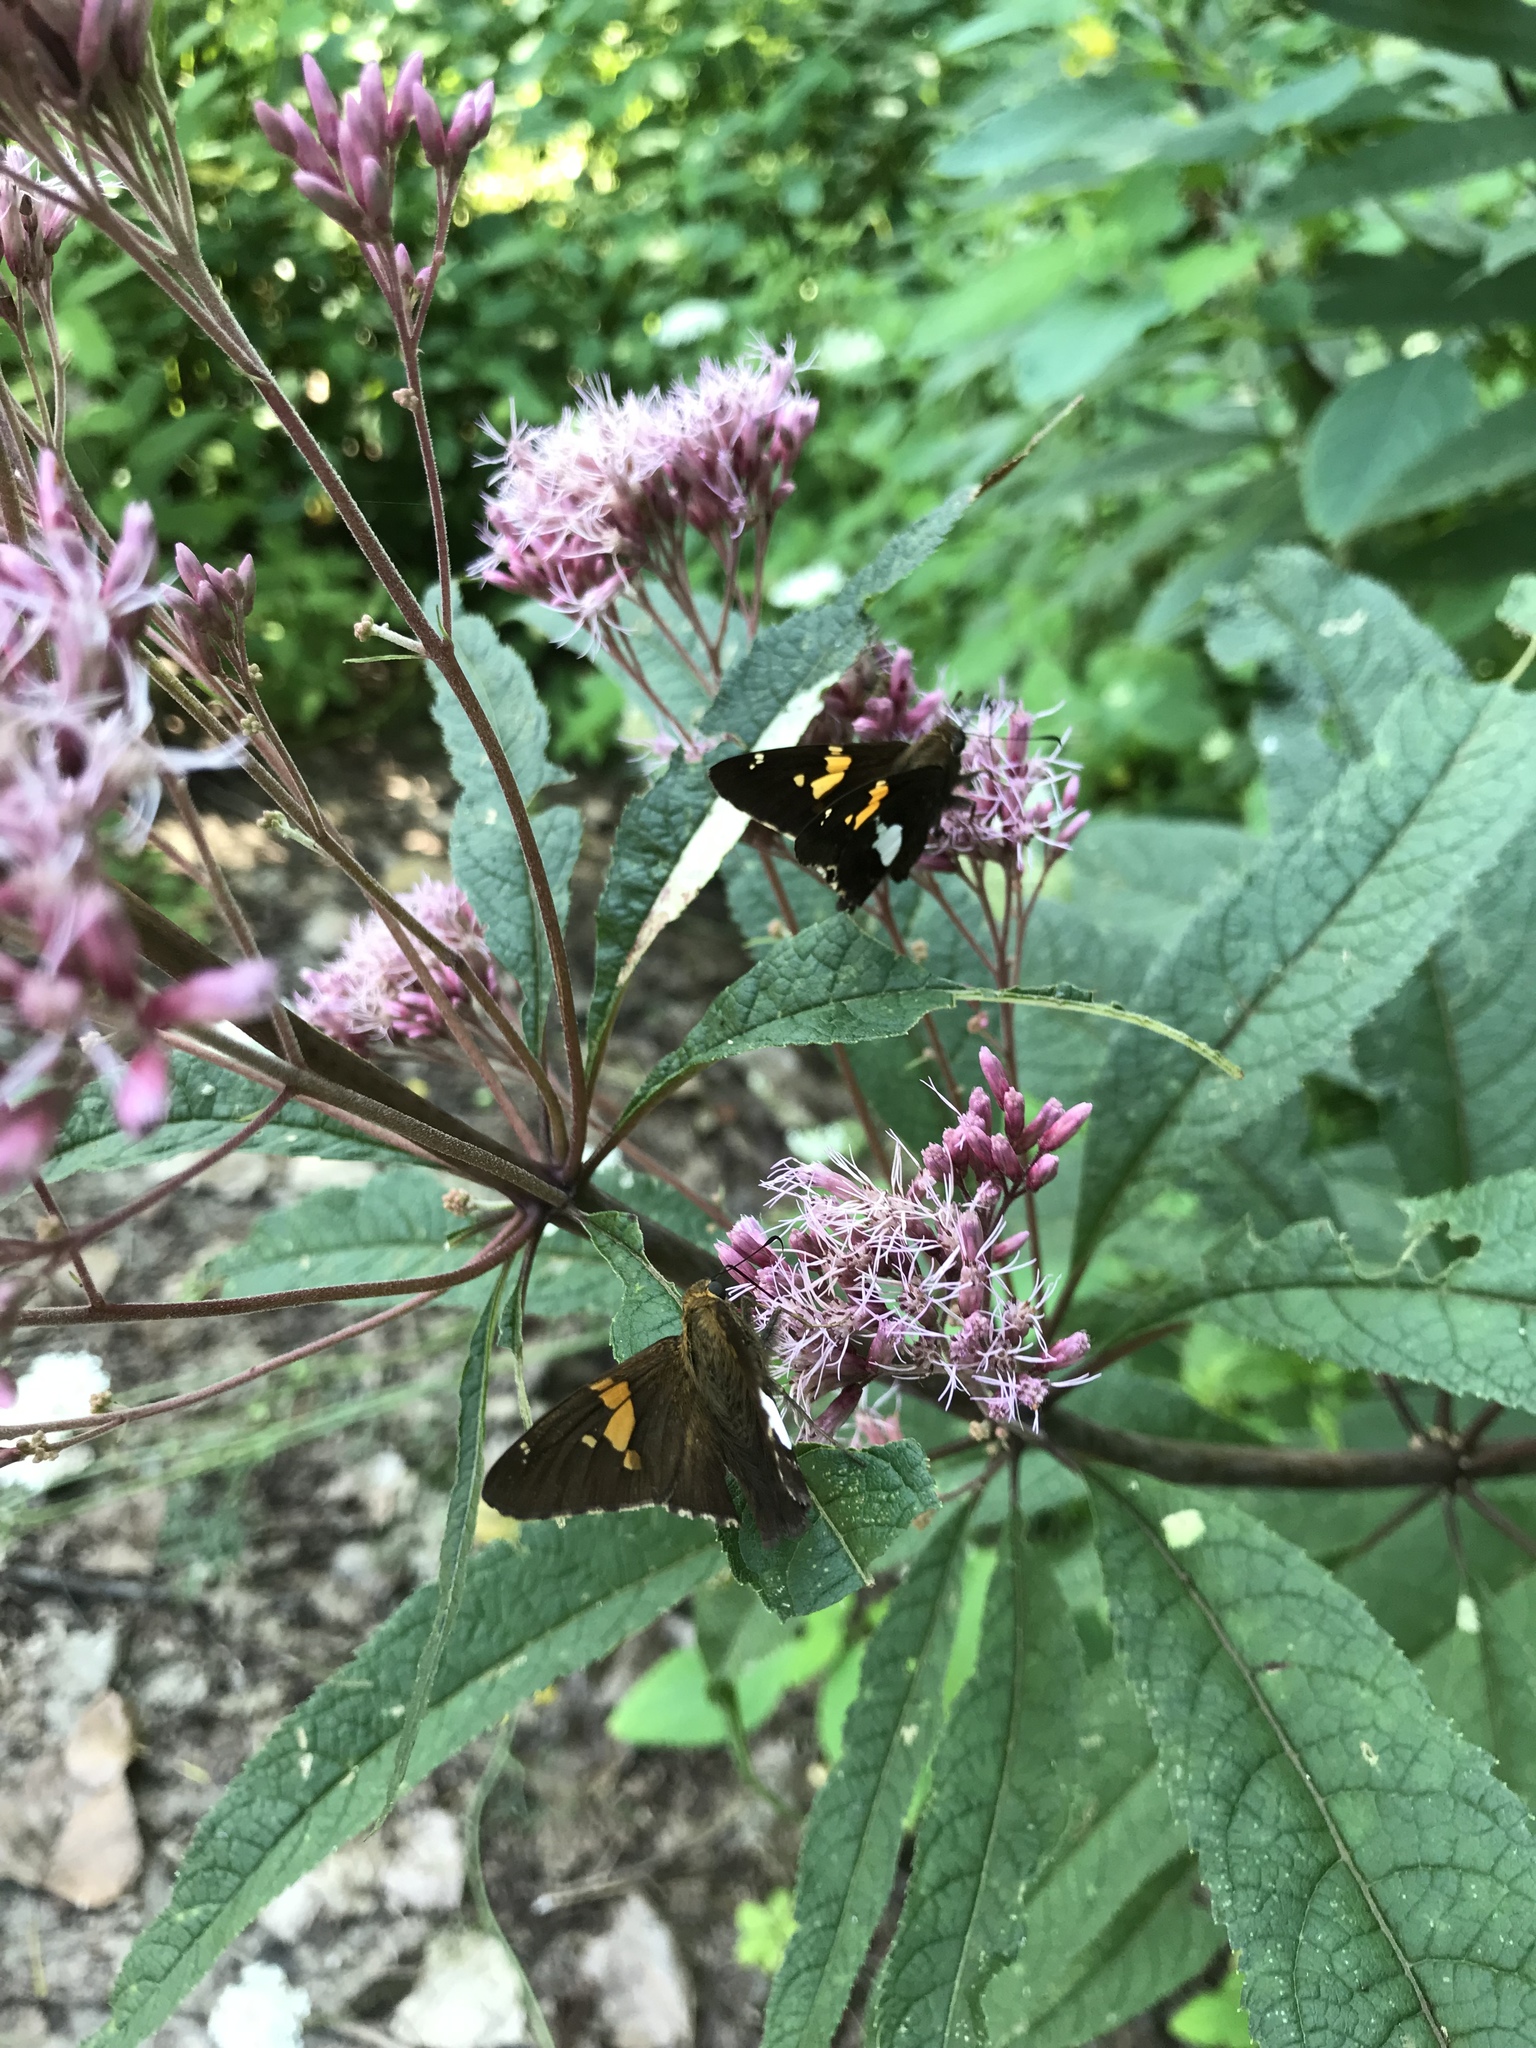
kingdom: Animalia
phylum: Arthropoda
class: Insecta
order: Lepidoptera
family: Hesperiidae
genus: Epargyreus
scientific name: Epargyreus clarus
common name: Silver-spotted skipper
